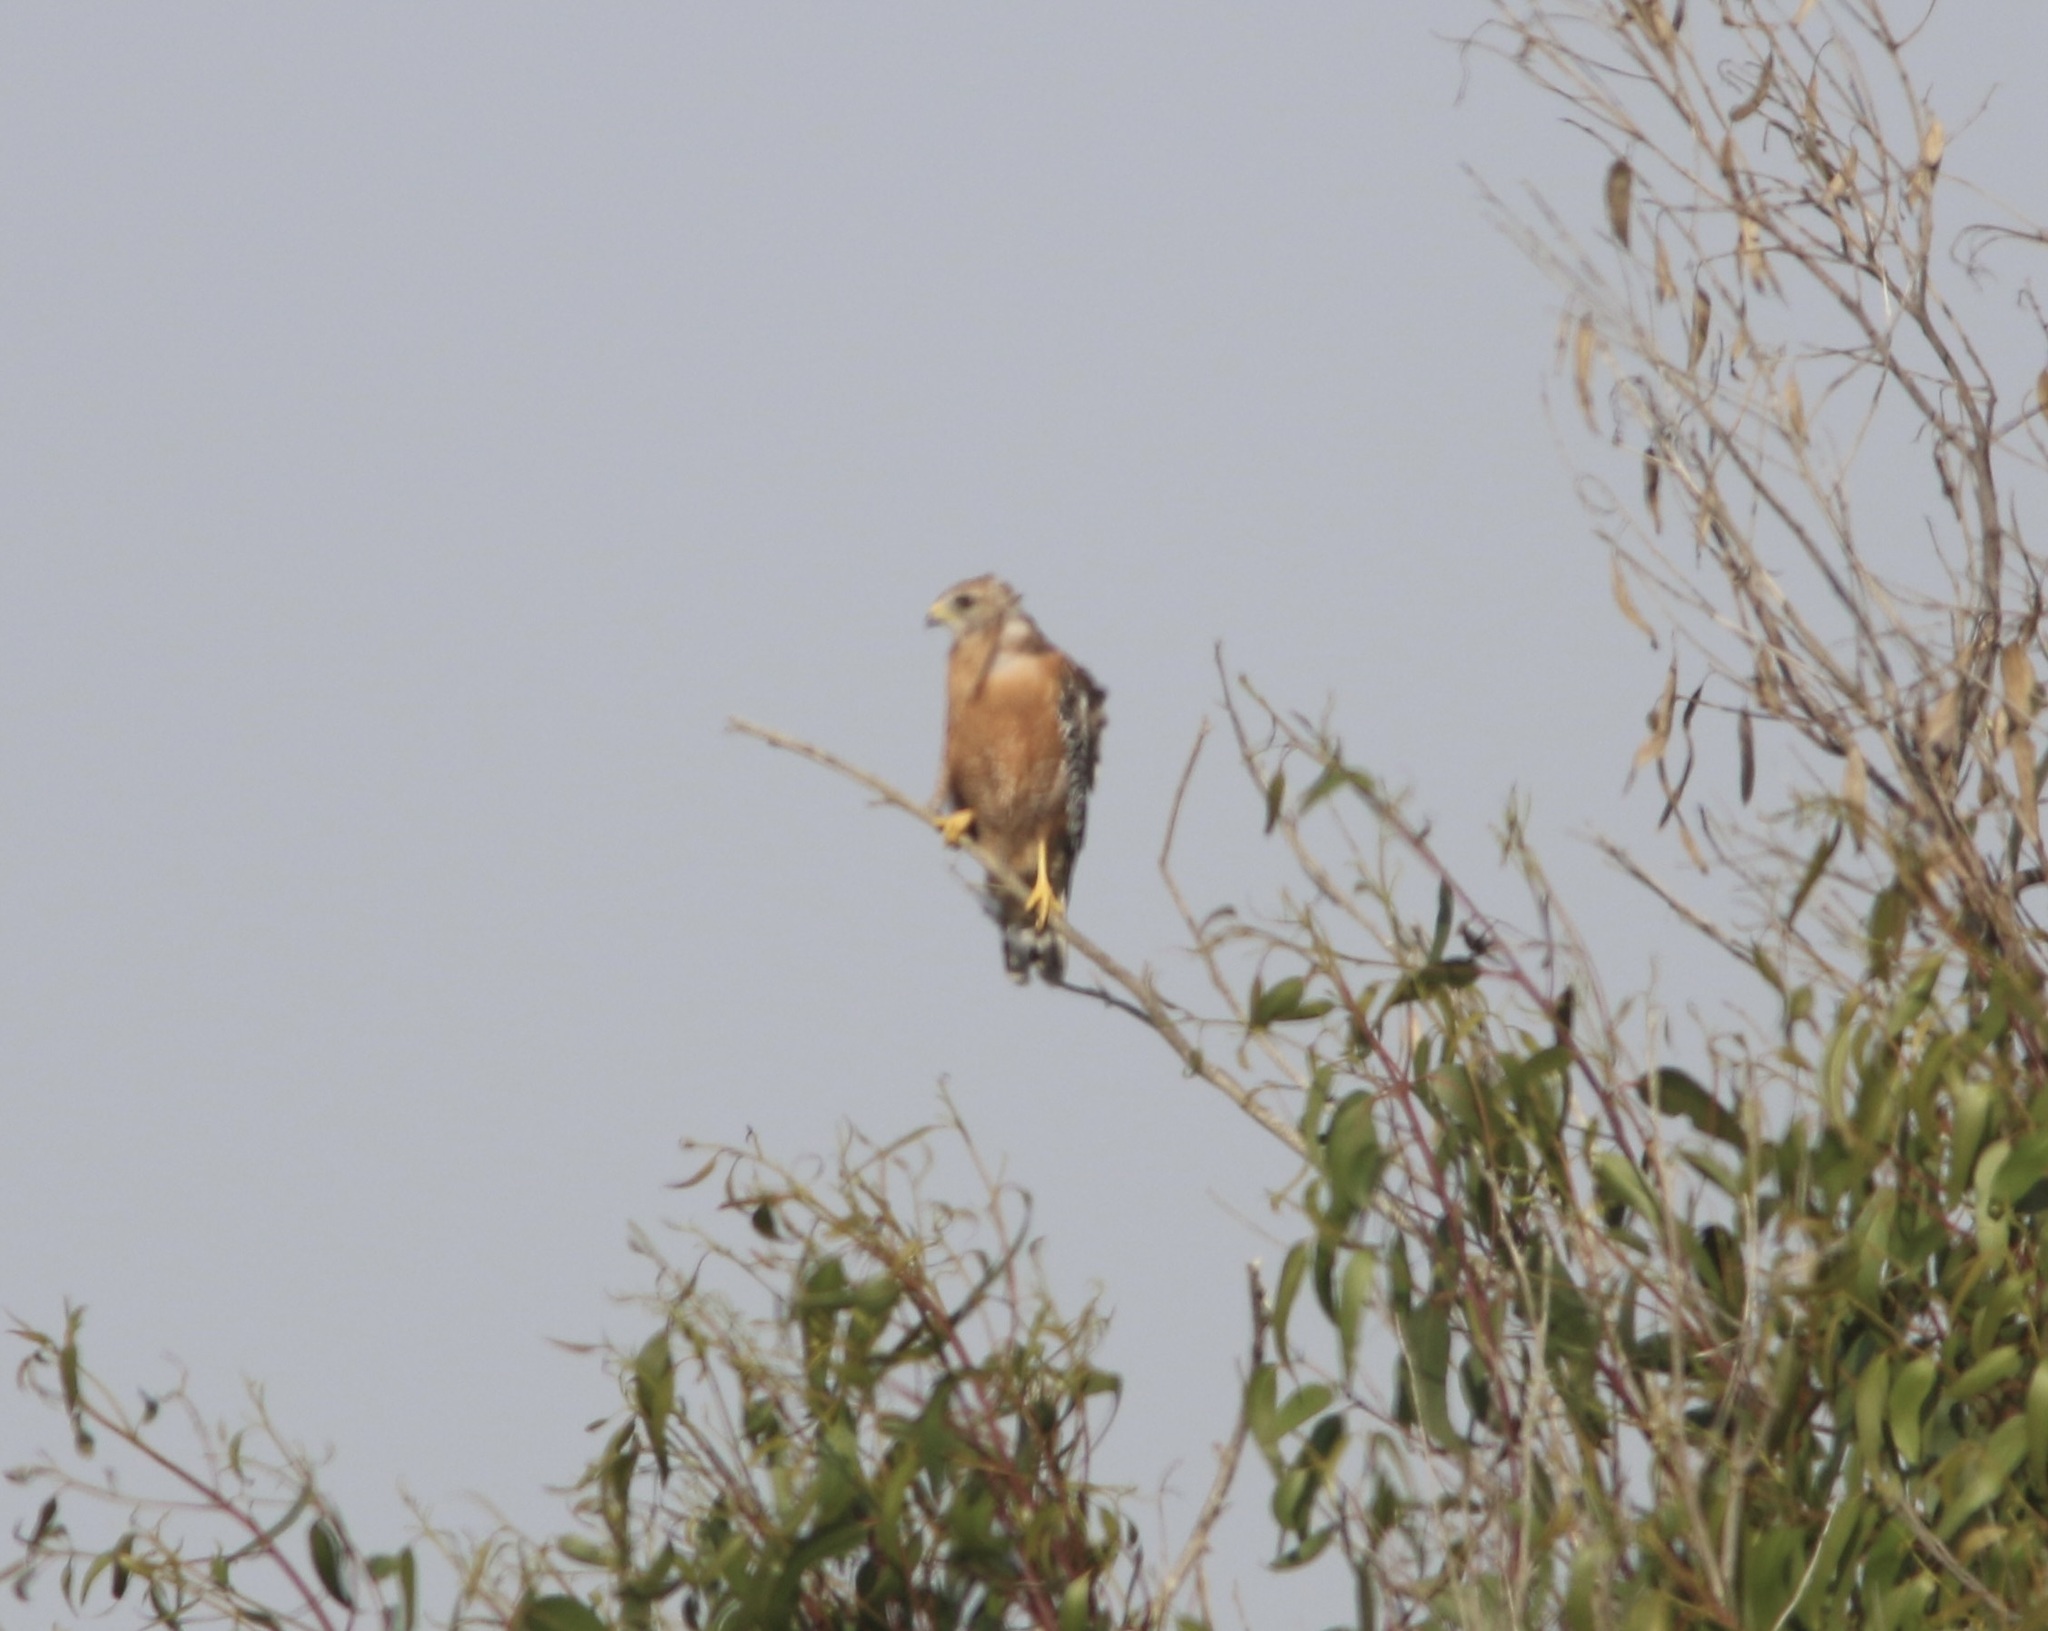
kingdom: Animalia
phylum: Chordata
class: Aves
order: Accipitriformes
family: Accipitridae
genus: Buteo
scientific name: Buteo lineatus
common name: Red-shouldered hawk
